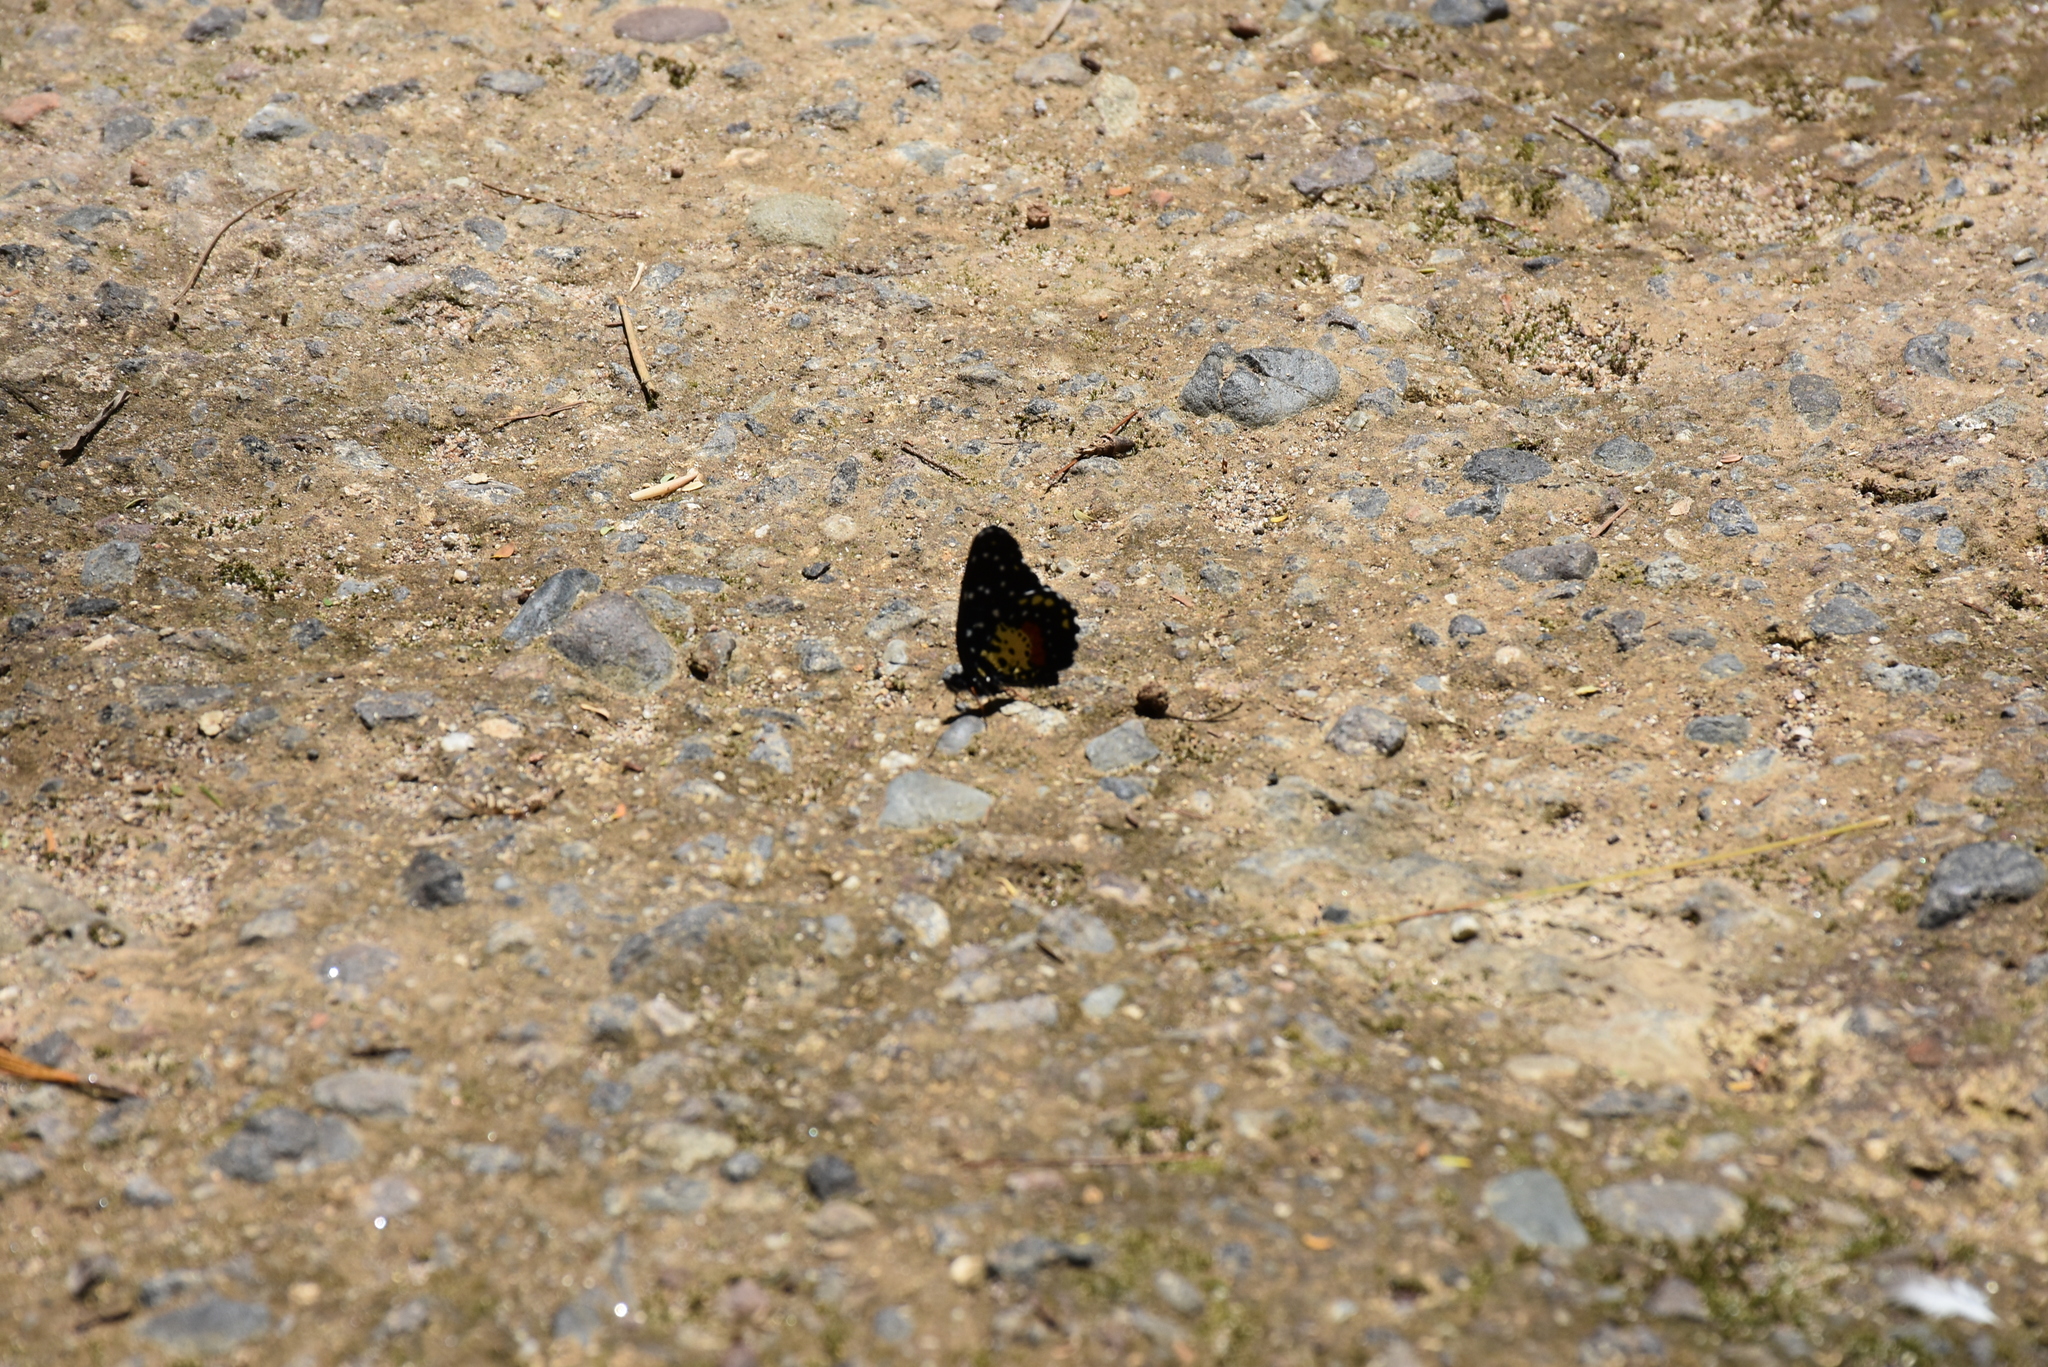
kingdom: Animalia
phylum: Arthropoda
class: Insecta
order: Lepidoptera
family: Nymphalidae
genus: Chlosyne
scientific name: Chlosyne janais
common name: Crimson patch
